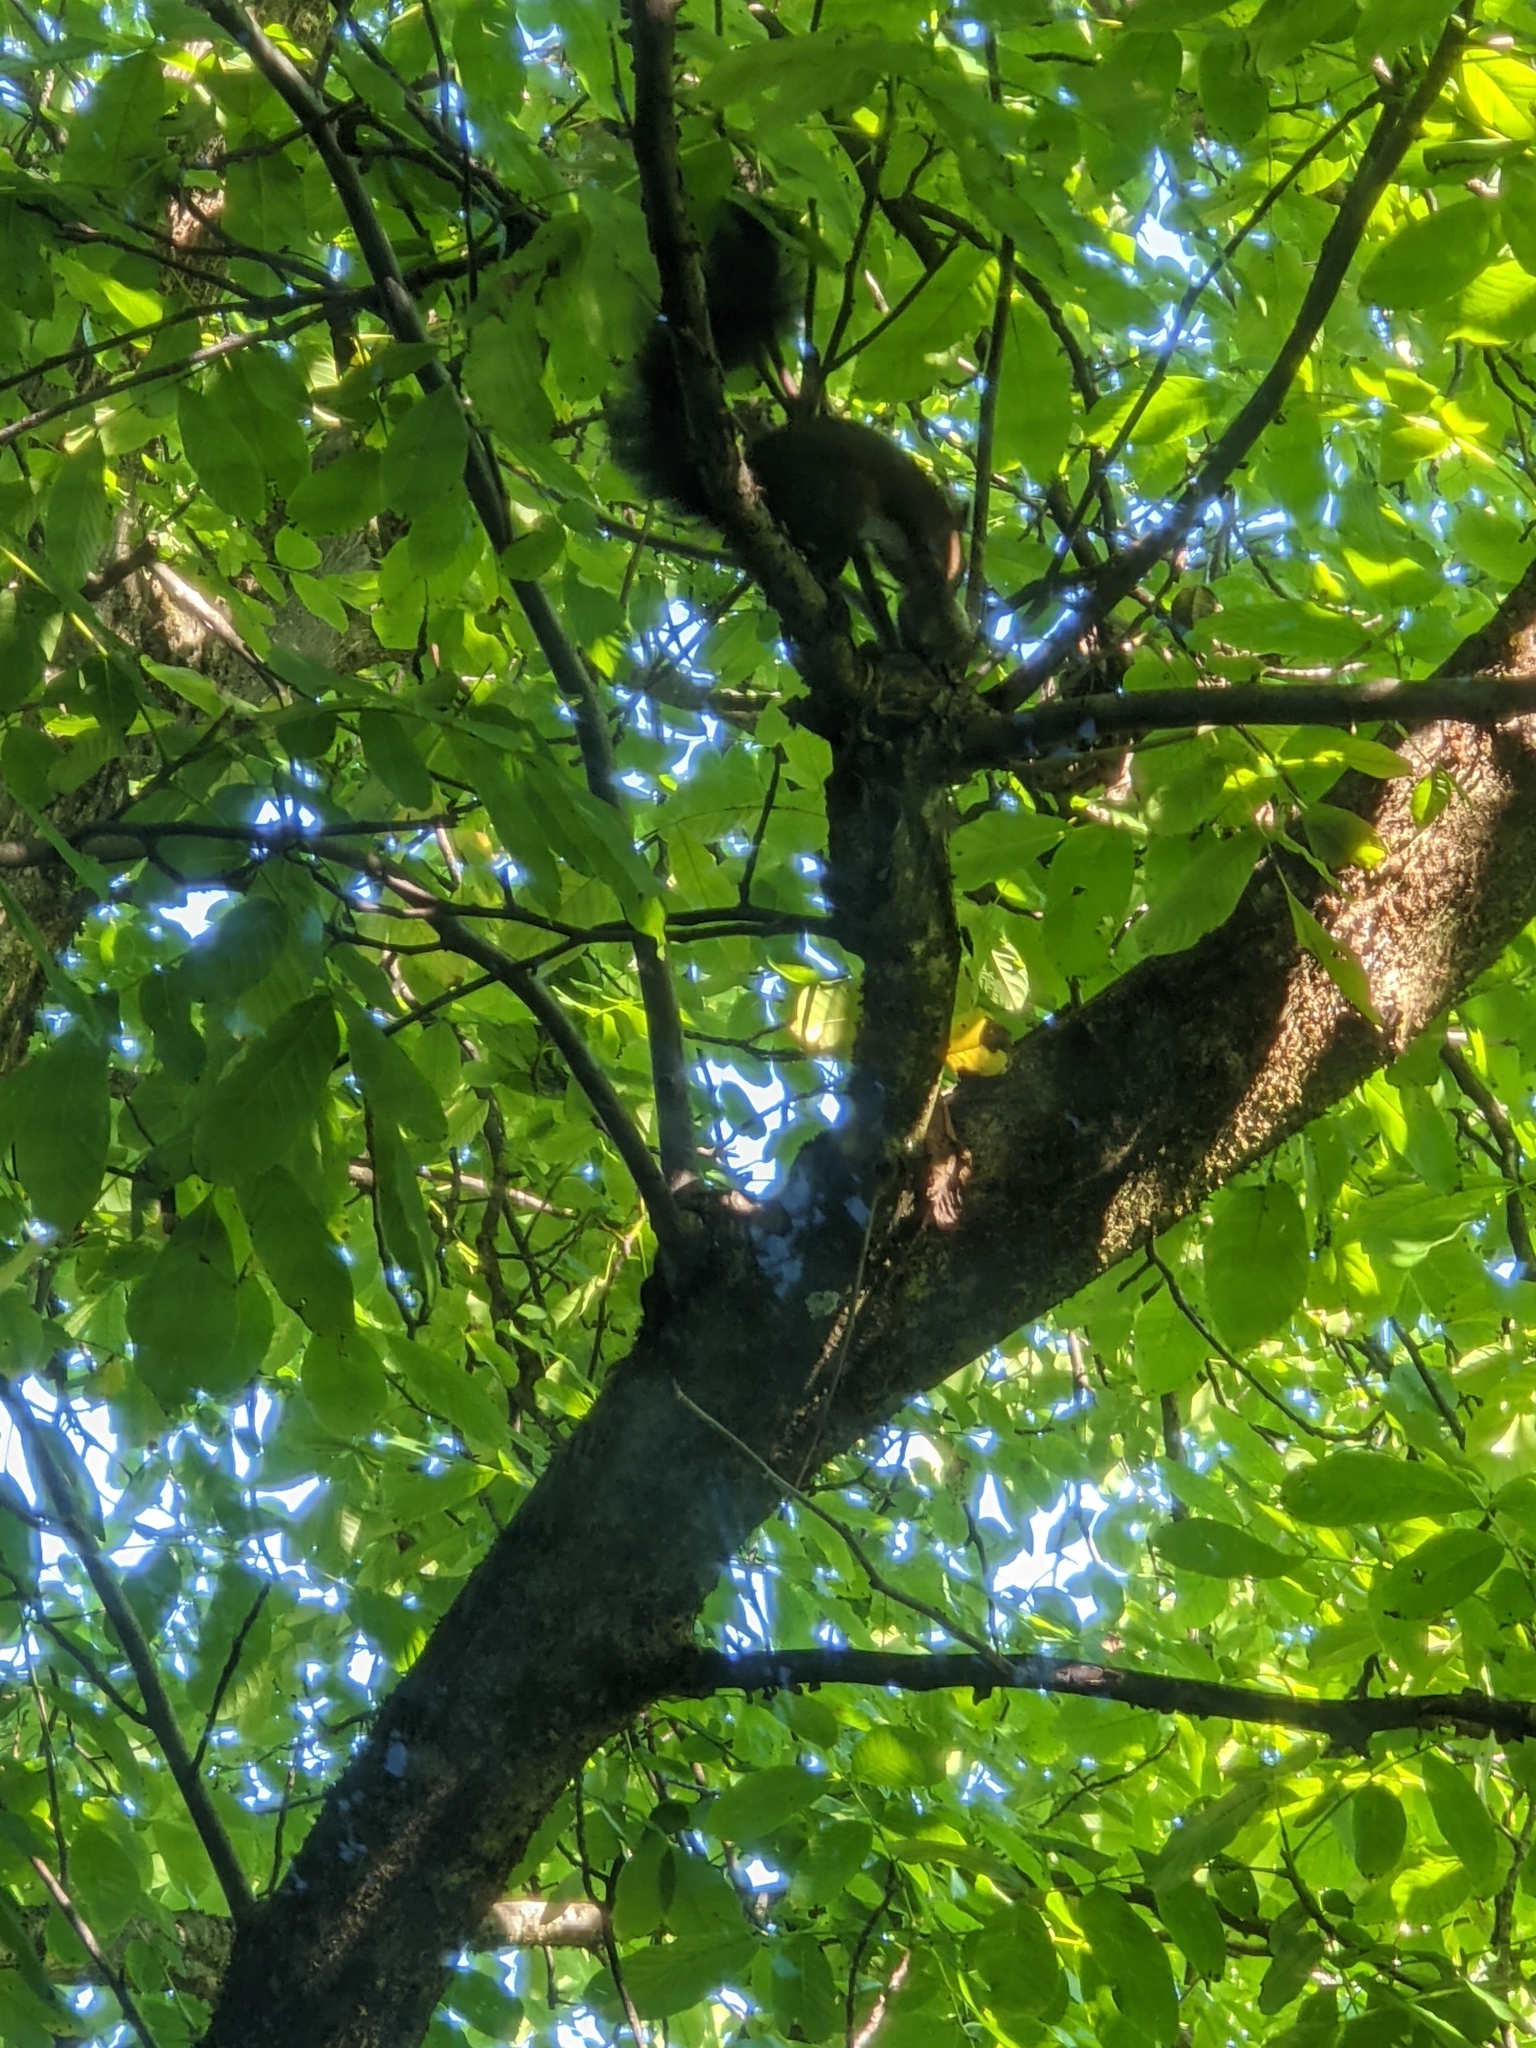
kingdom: Animalia
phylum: Chordata
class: Mammalia
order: Rodentia
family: Sciuridae
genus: Sciurus
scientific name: Sciurus vulgaris
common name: Eurasian red squirrel
